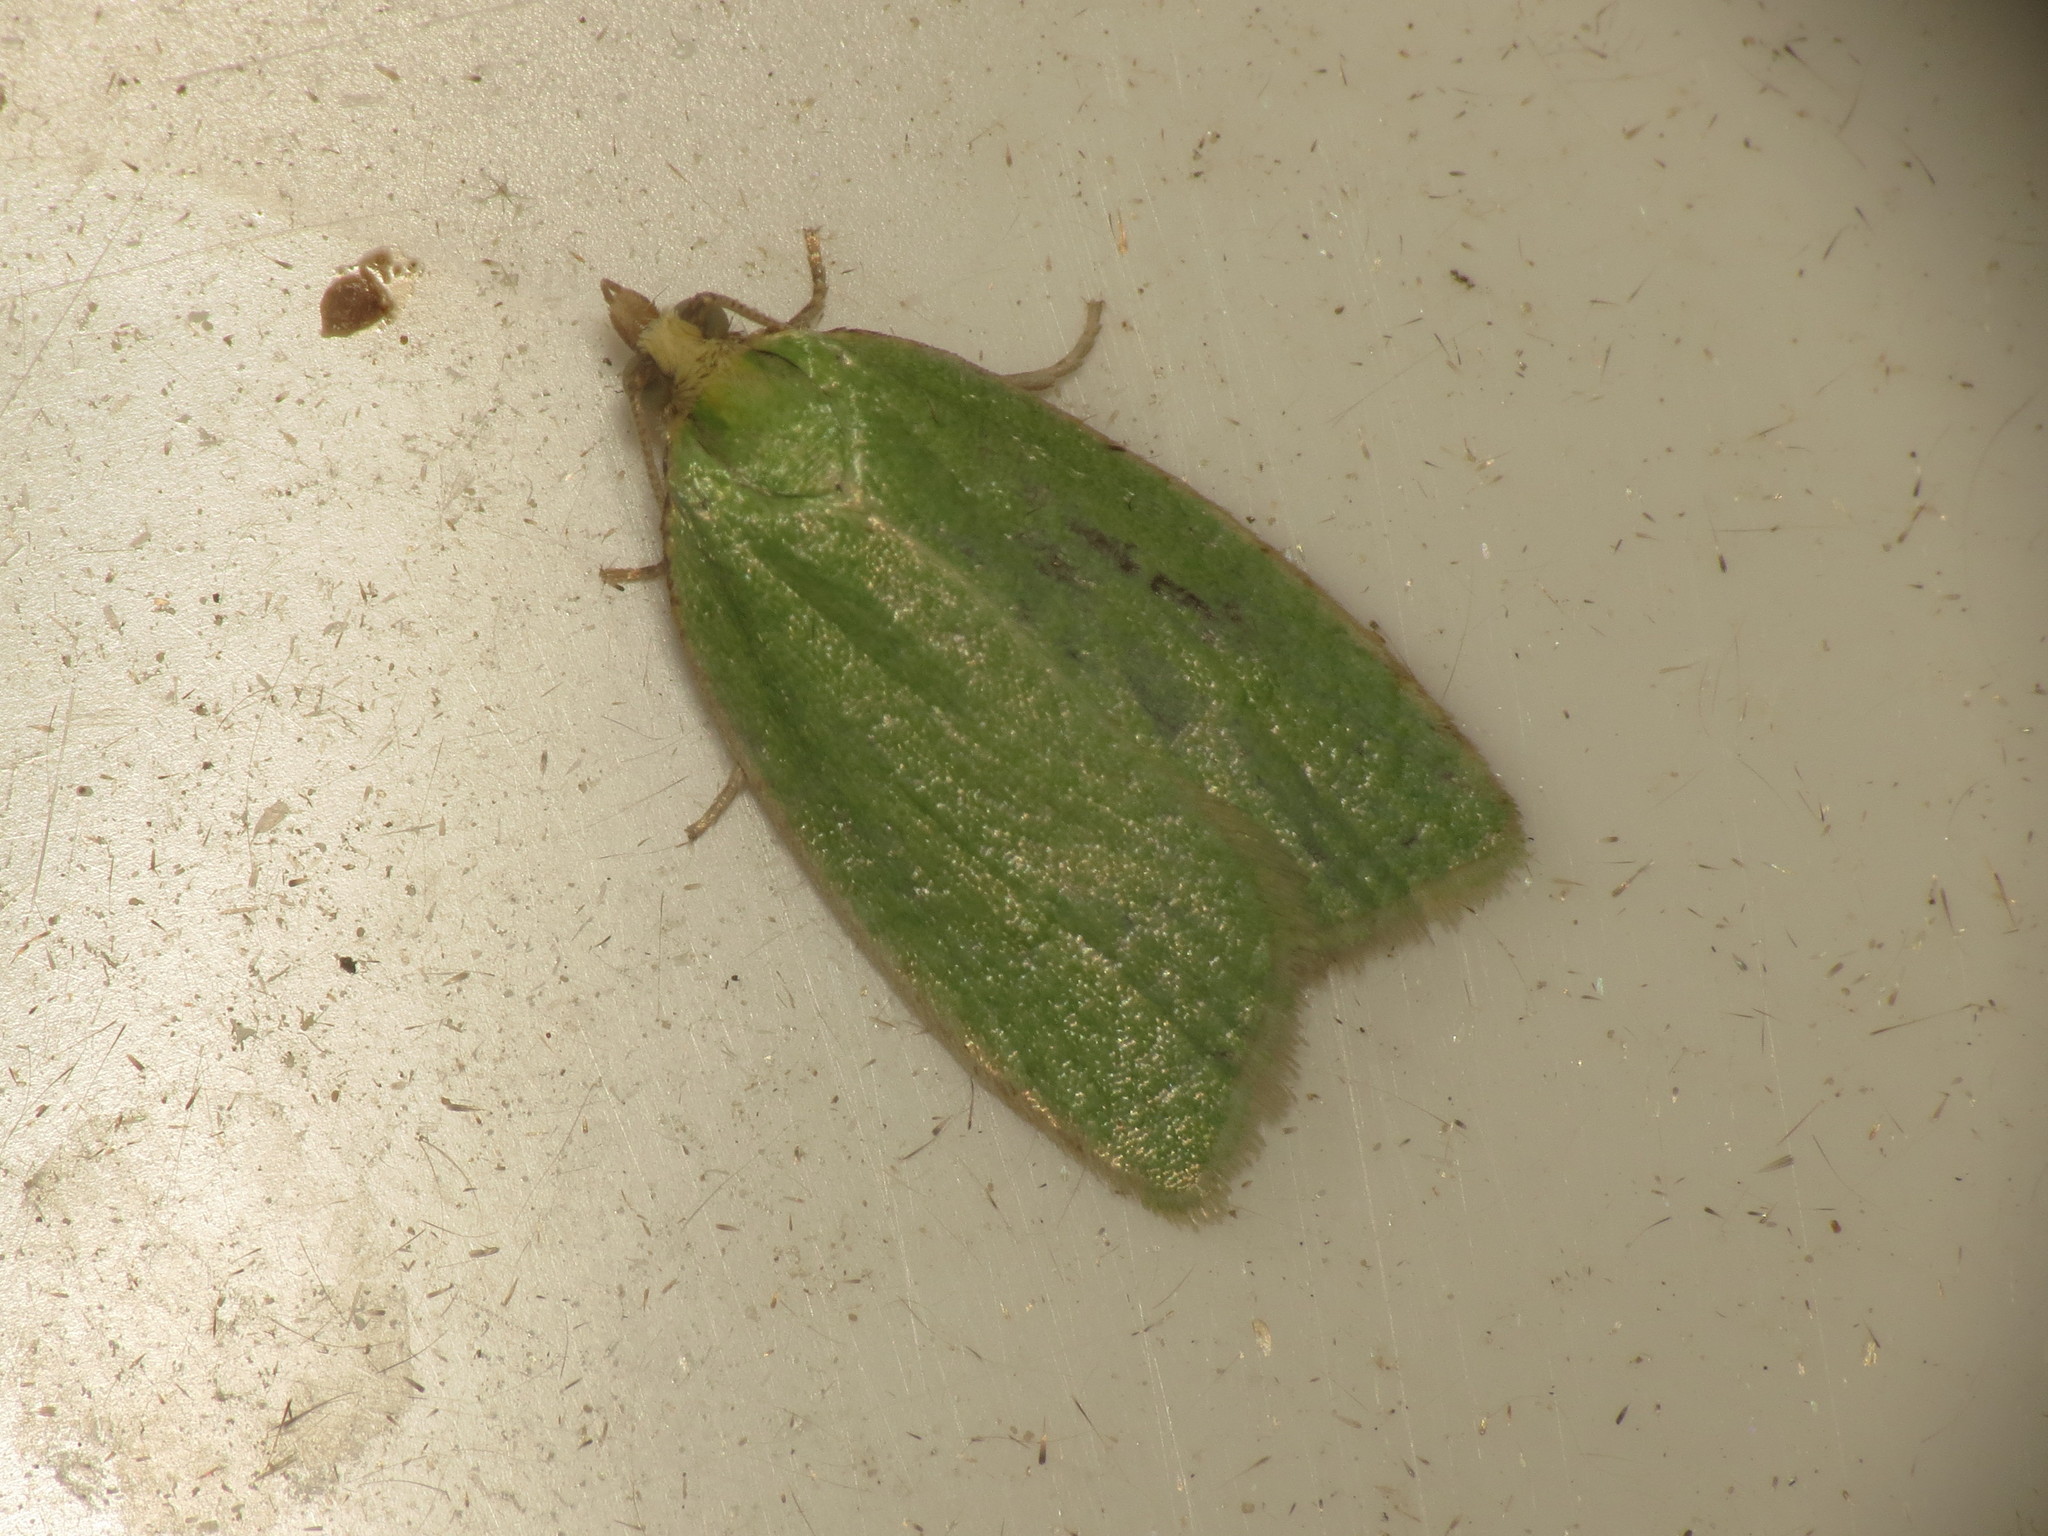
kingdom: Animalia
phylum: Arthropoda
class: Insecta
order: Lepidoptera
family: Tortricidae
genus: Tortrix
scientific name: Tortrix viridana
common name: Green oak tortrix
